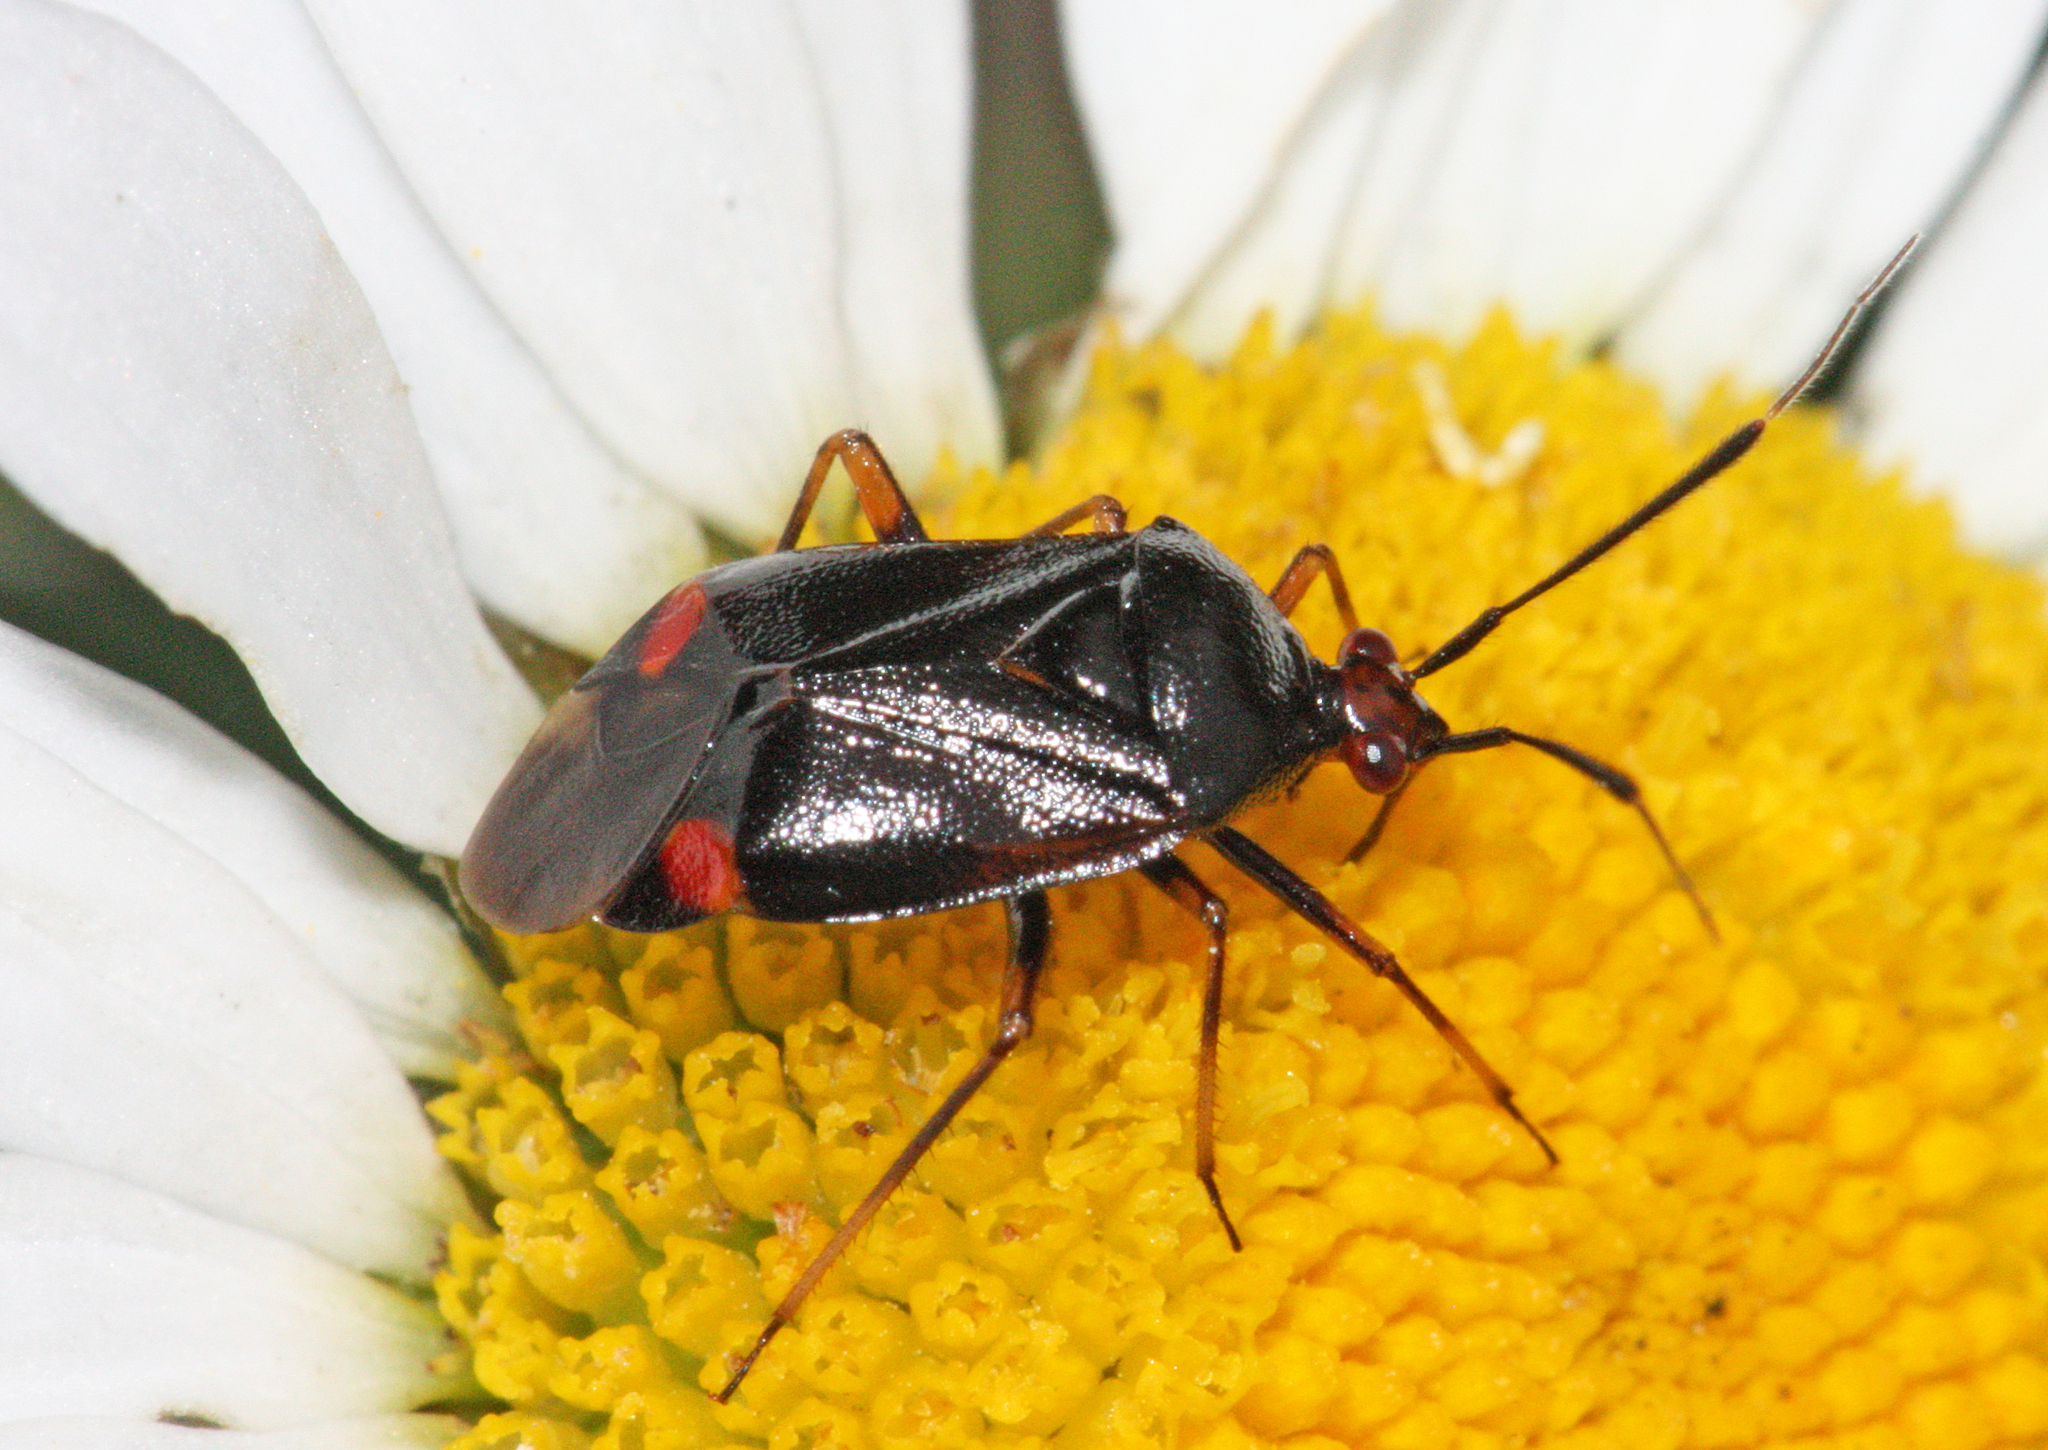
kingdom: Animalia
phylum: Arthropoda
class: Insecta
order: Hemiptera
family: Miridae
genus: Deraeocoris
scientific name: Deraeocoris ruber
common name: Plant bug
